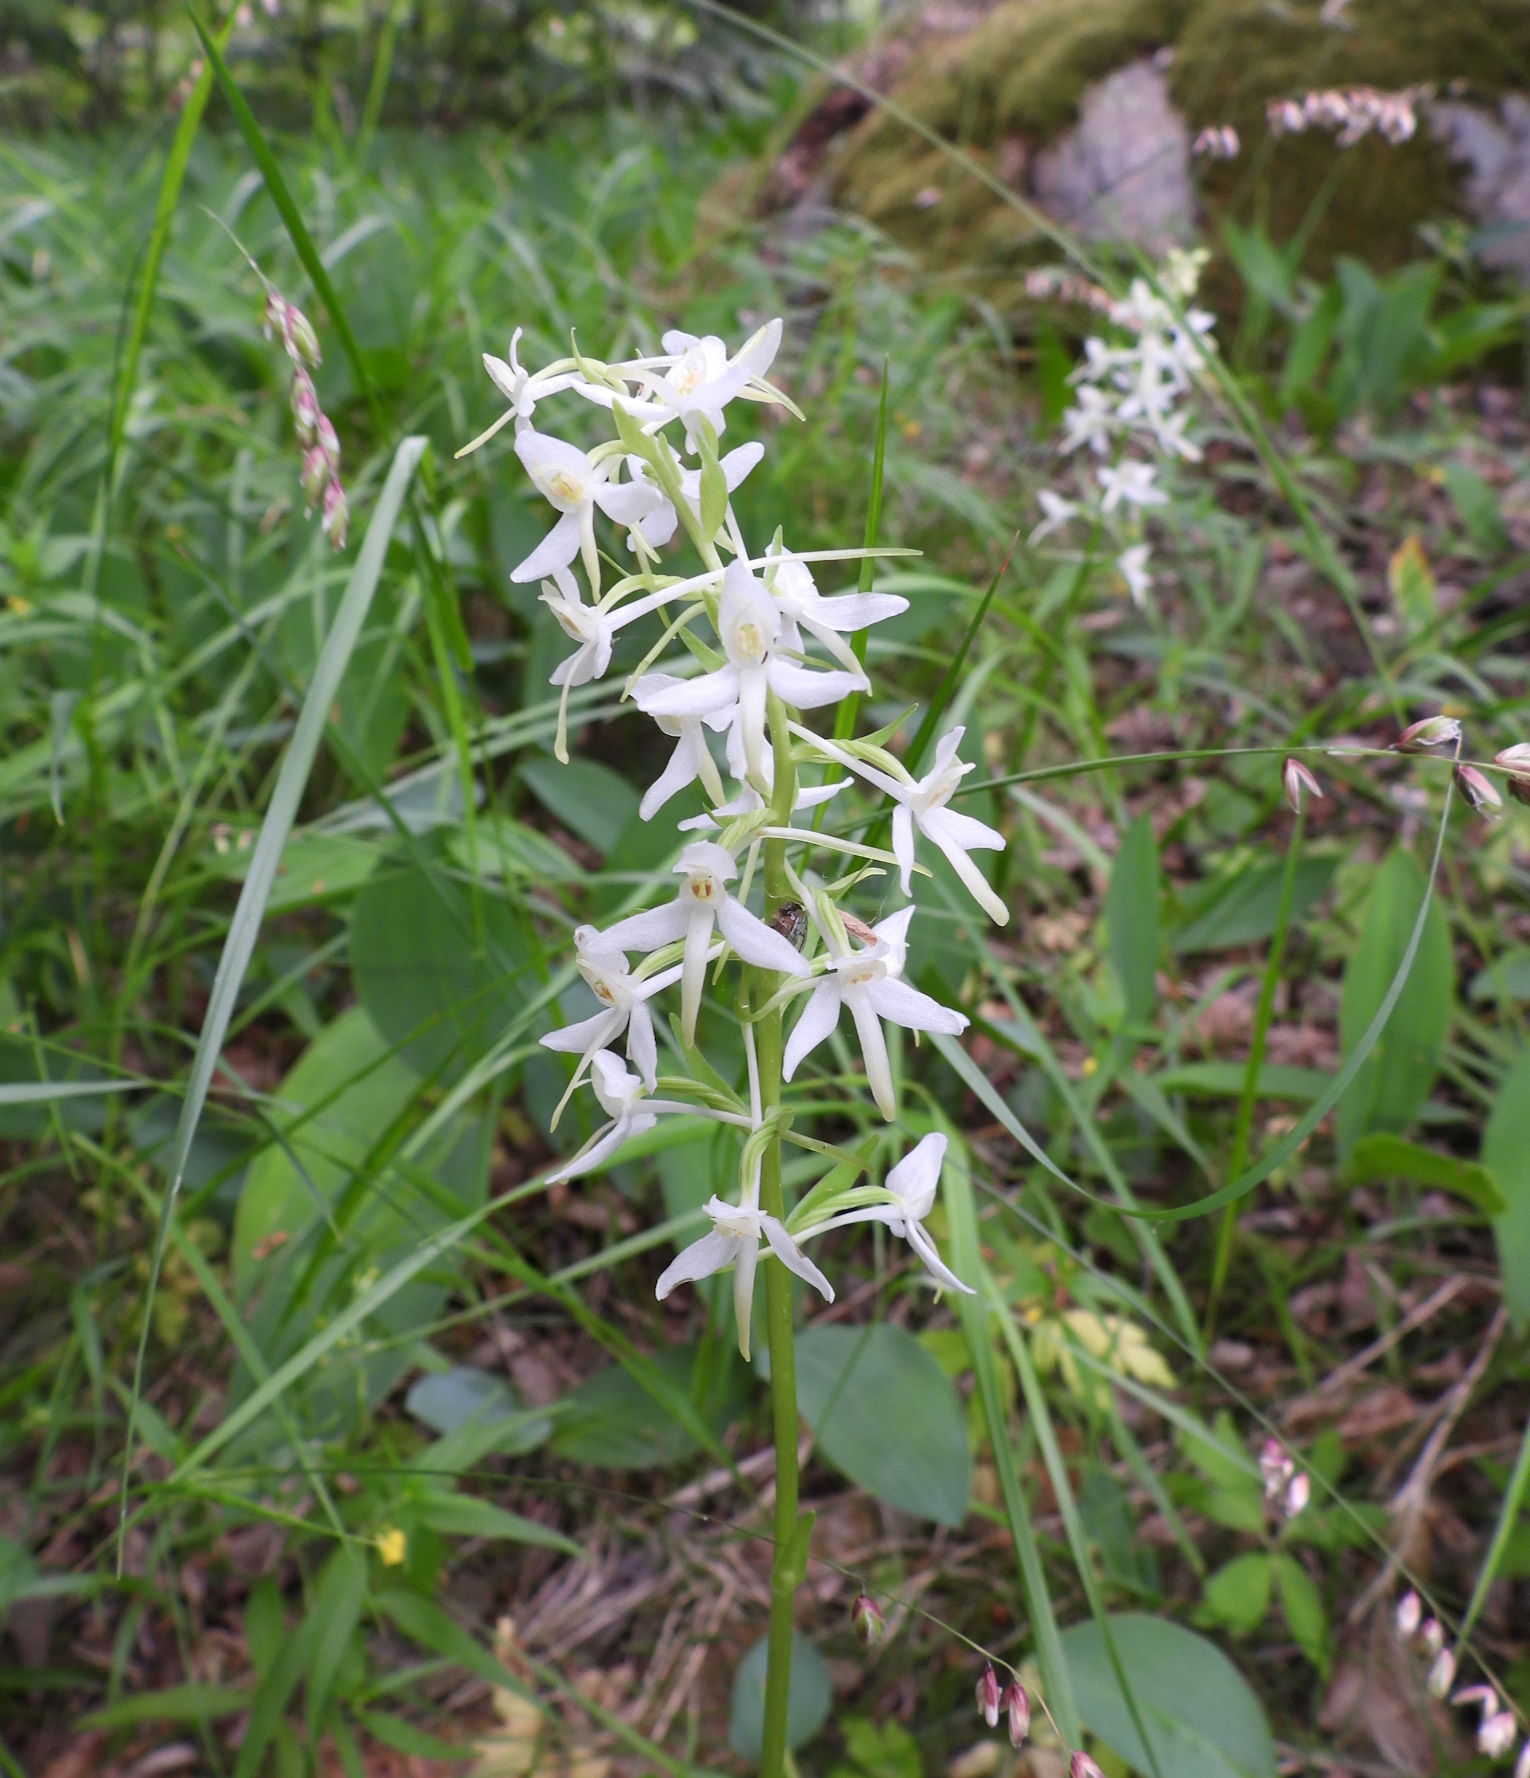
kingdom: Plantae
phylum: Tracheophyta
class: Liliopsida
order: Asparagales
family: Orchidaceae
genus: Platanthera
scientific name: Platanthera bifolia
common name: Lesser butterfly-orchid
